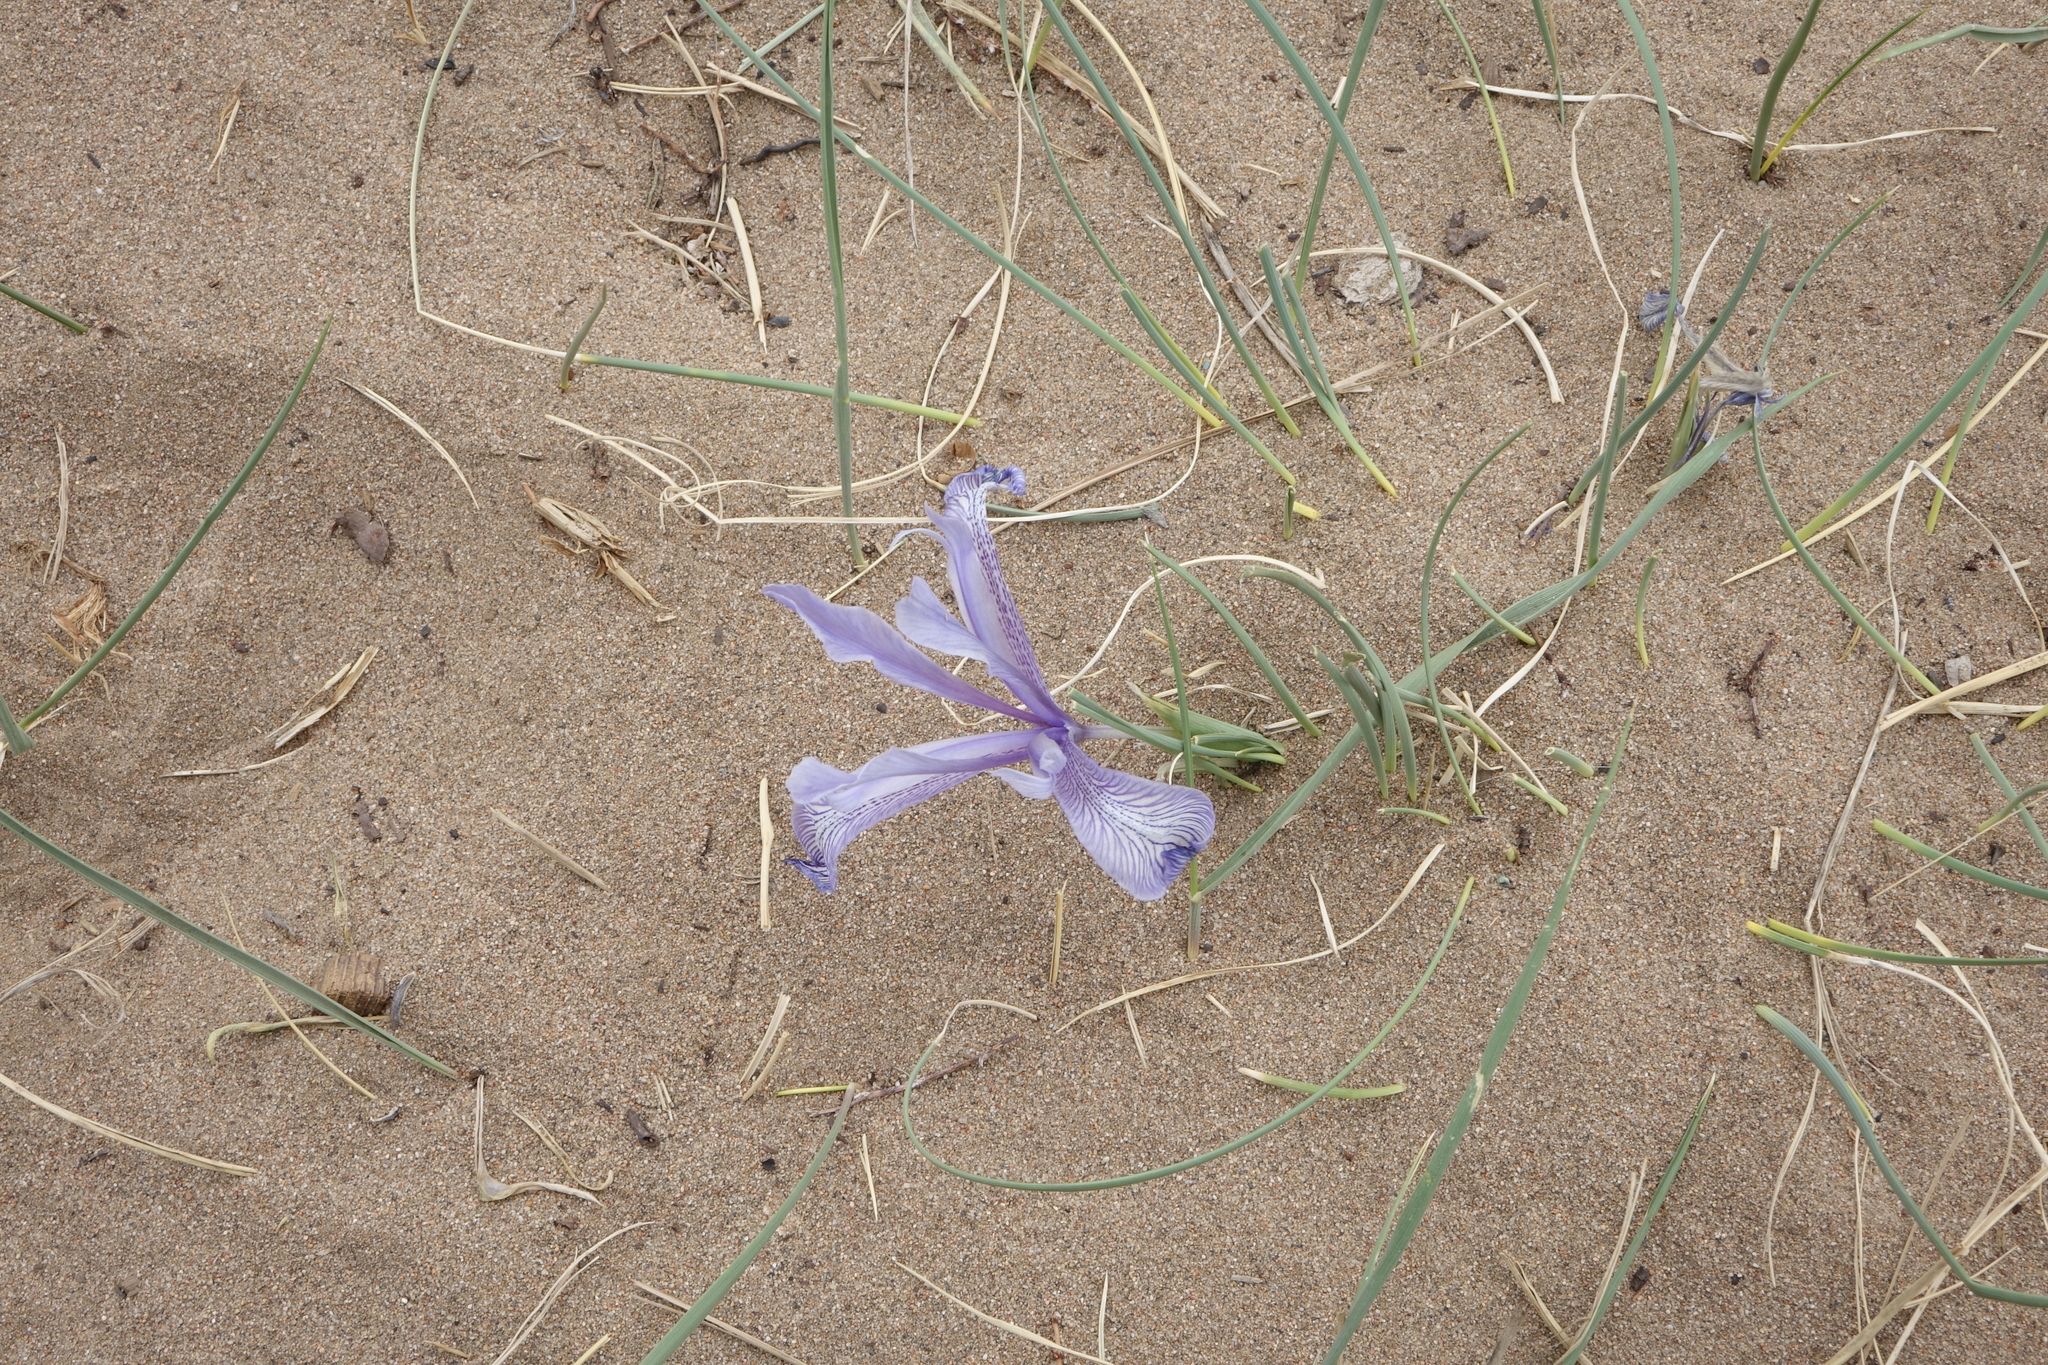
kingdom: Plantae
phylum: Tracheophyta
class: Liliopsida
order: Asparagales
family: Iridaceae
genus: Iris
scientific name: Iris tenuifolia
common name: Slender-leaf iris
